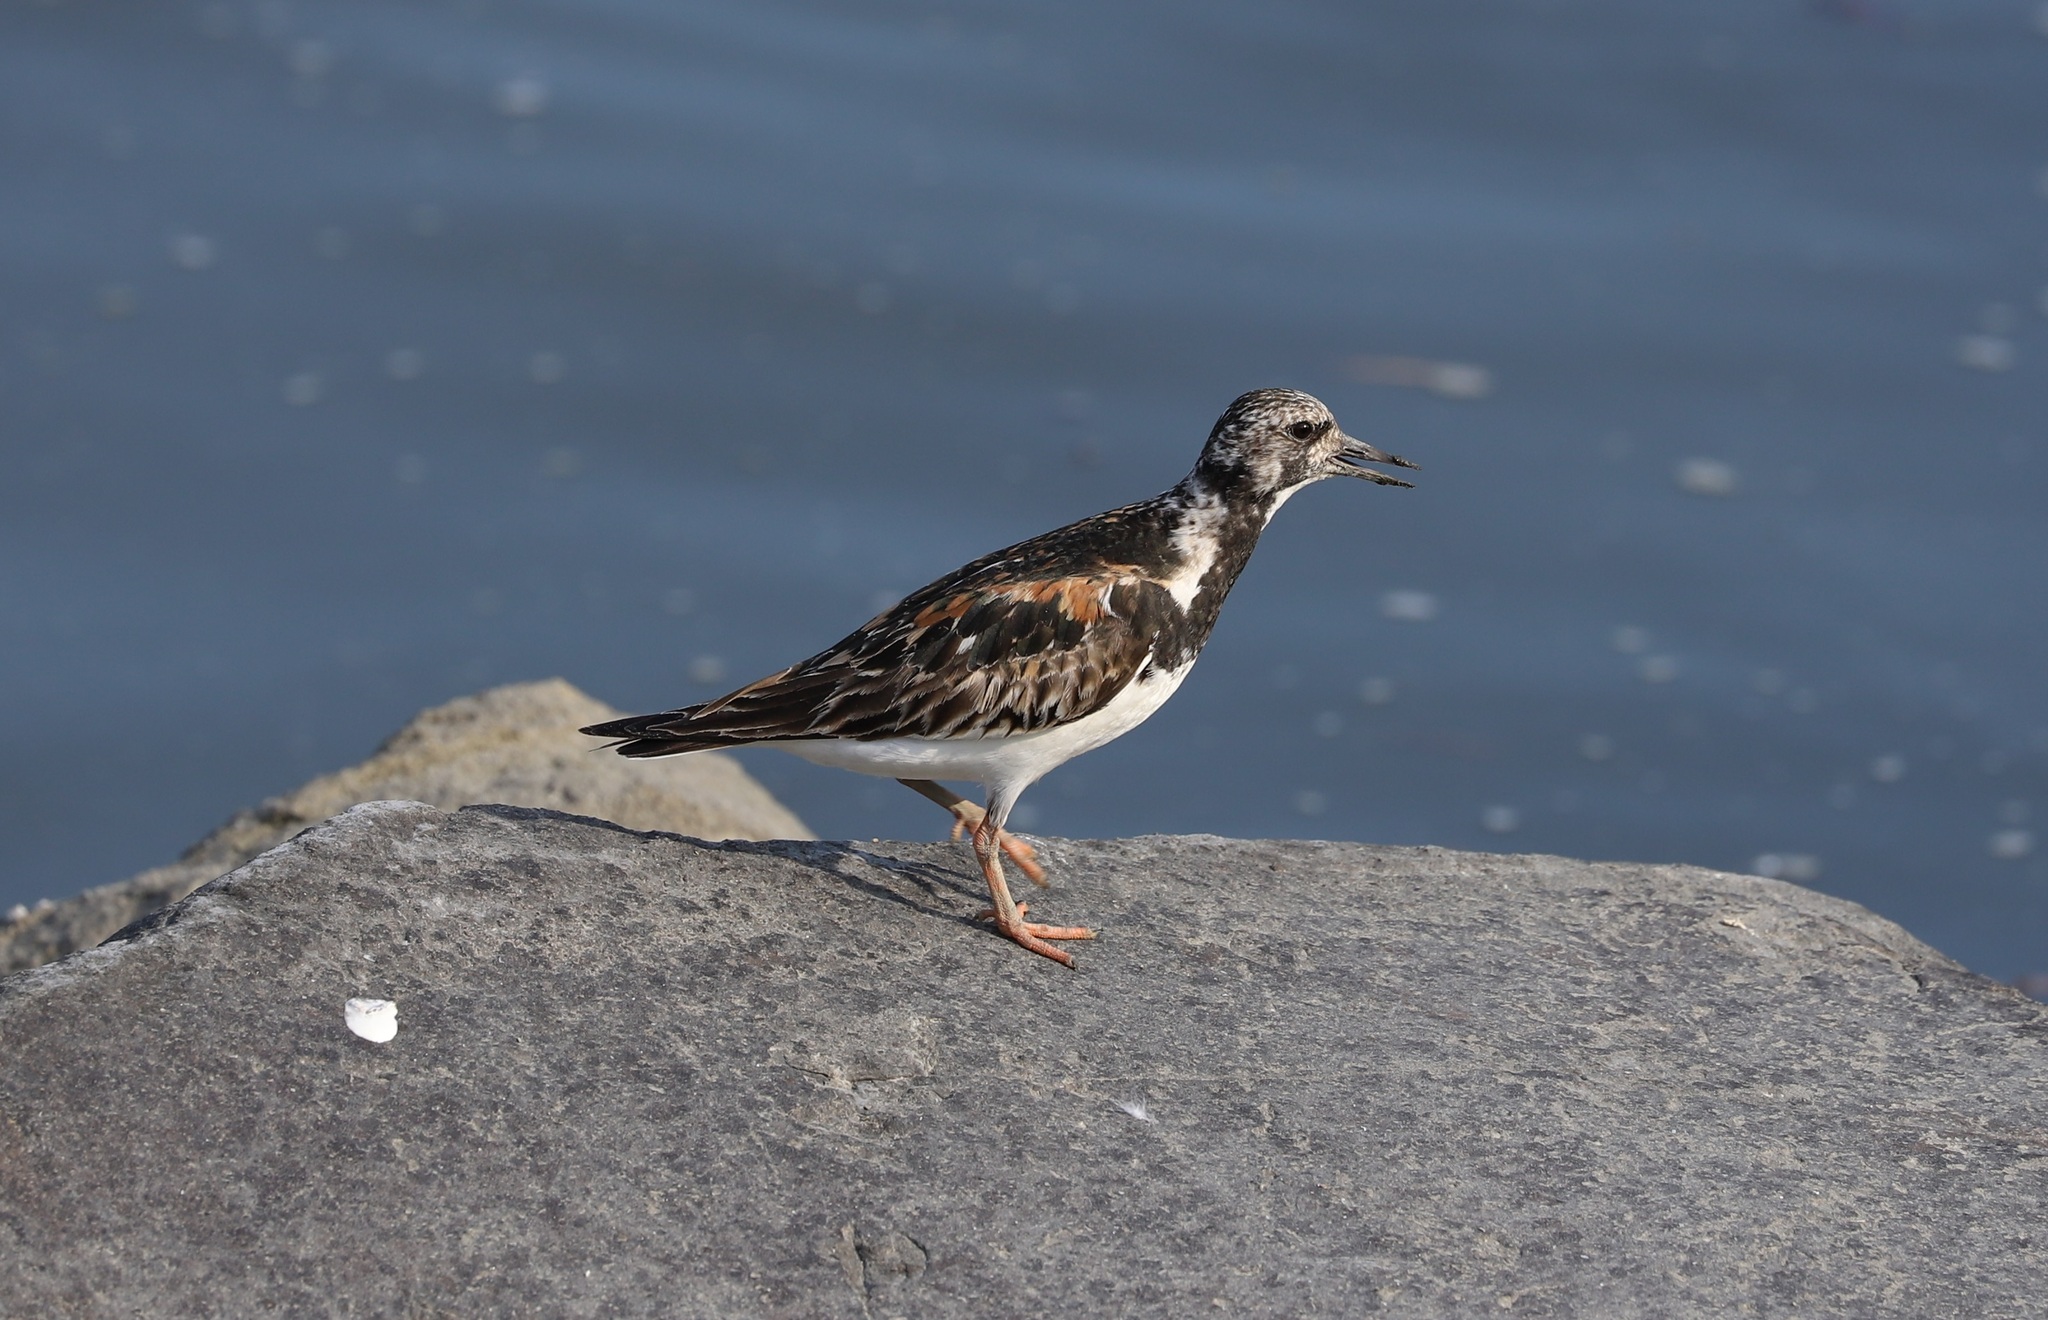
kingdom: Animalia
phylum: Chordata
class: Aves
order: Charadriiformes
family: Scolopacidae
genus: Arenaria
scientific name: Arenaria interpres
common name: Ruddy turnstone
